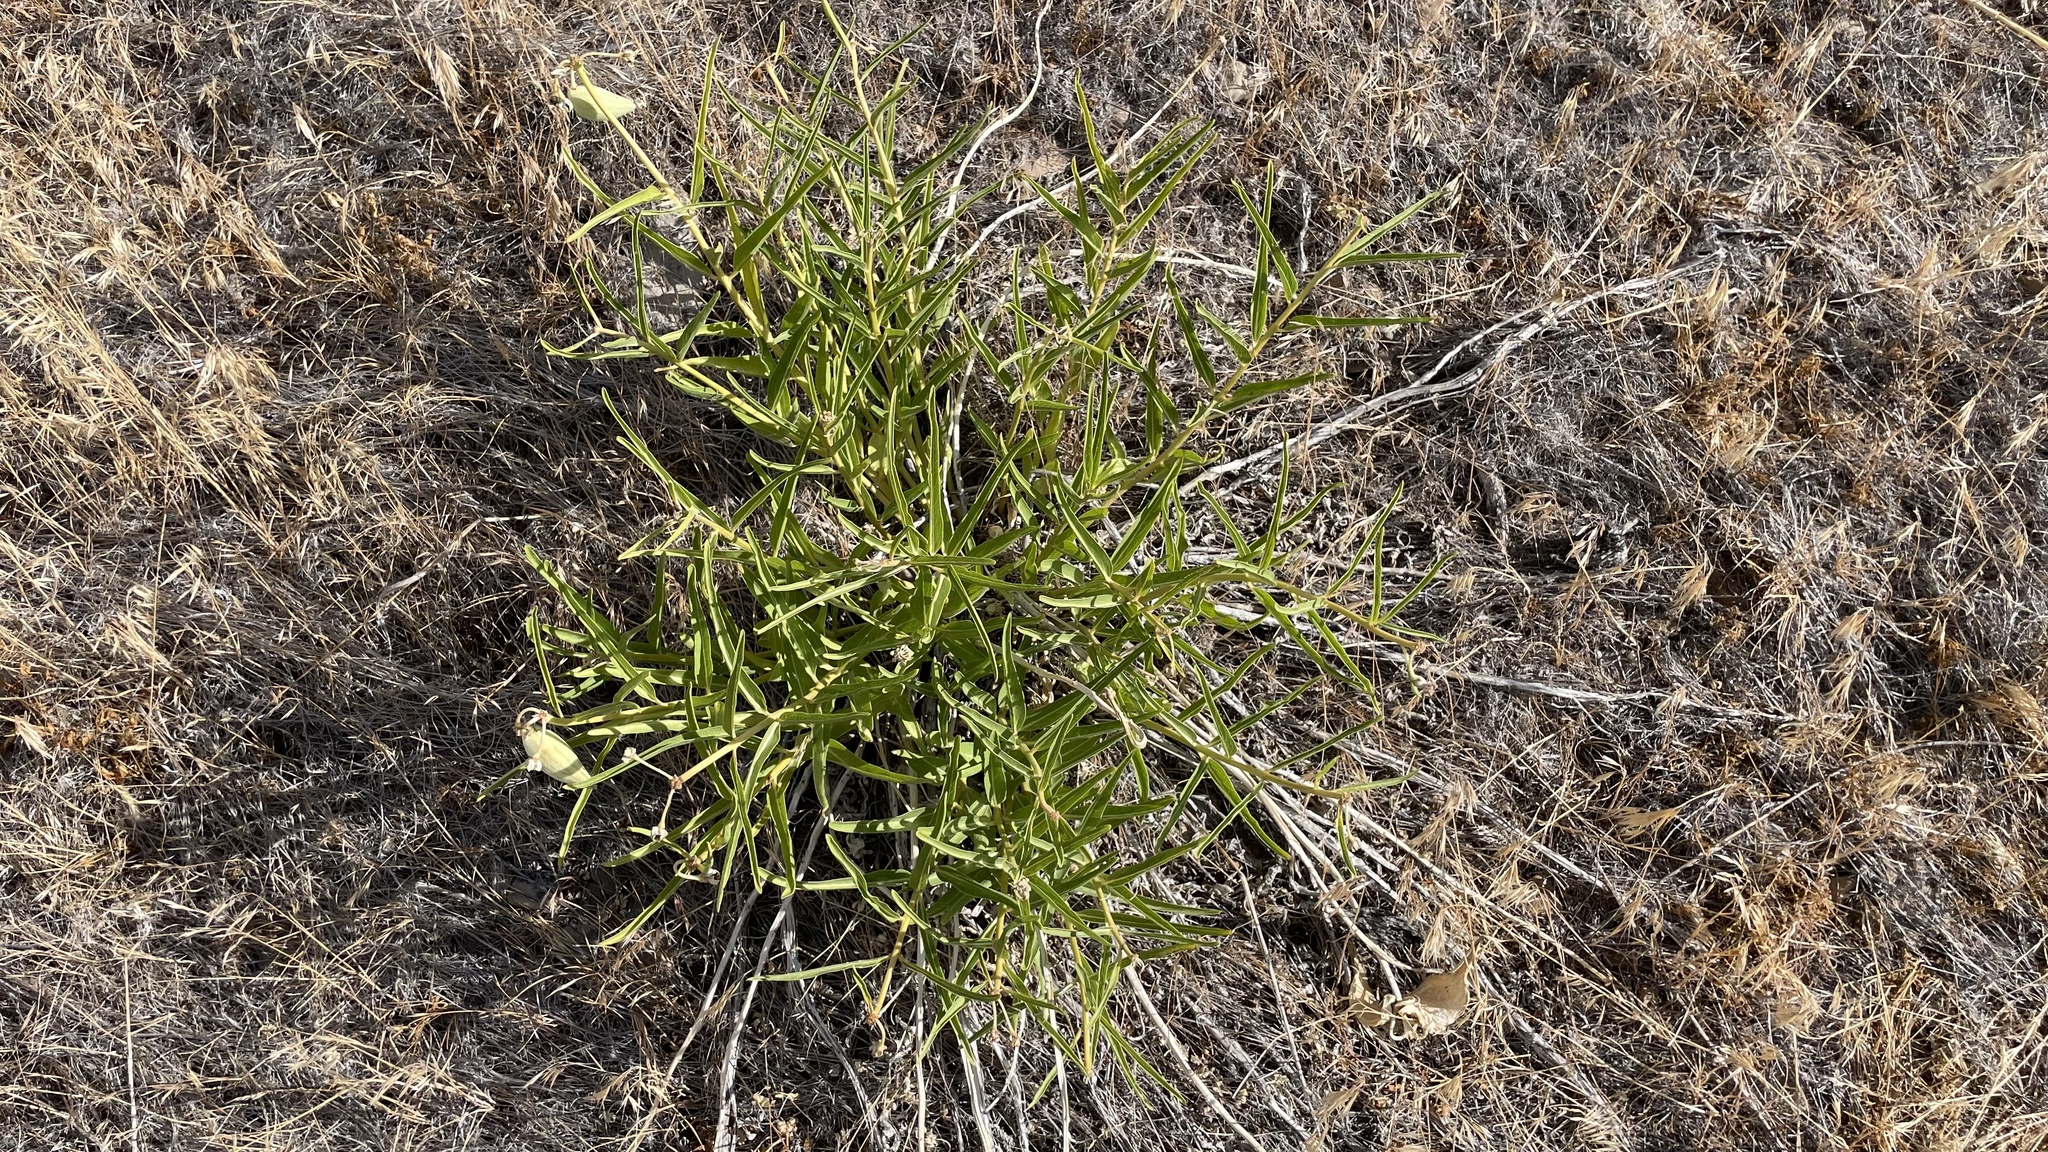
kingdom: Plantae
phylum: Tracheophyta
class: Magnoliopsida
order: Gentianales
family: Apocynaceae
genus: Asclepias
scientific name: Asclepias asperula
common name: Antelope horns
